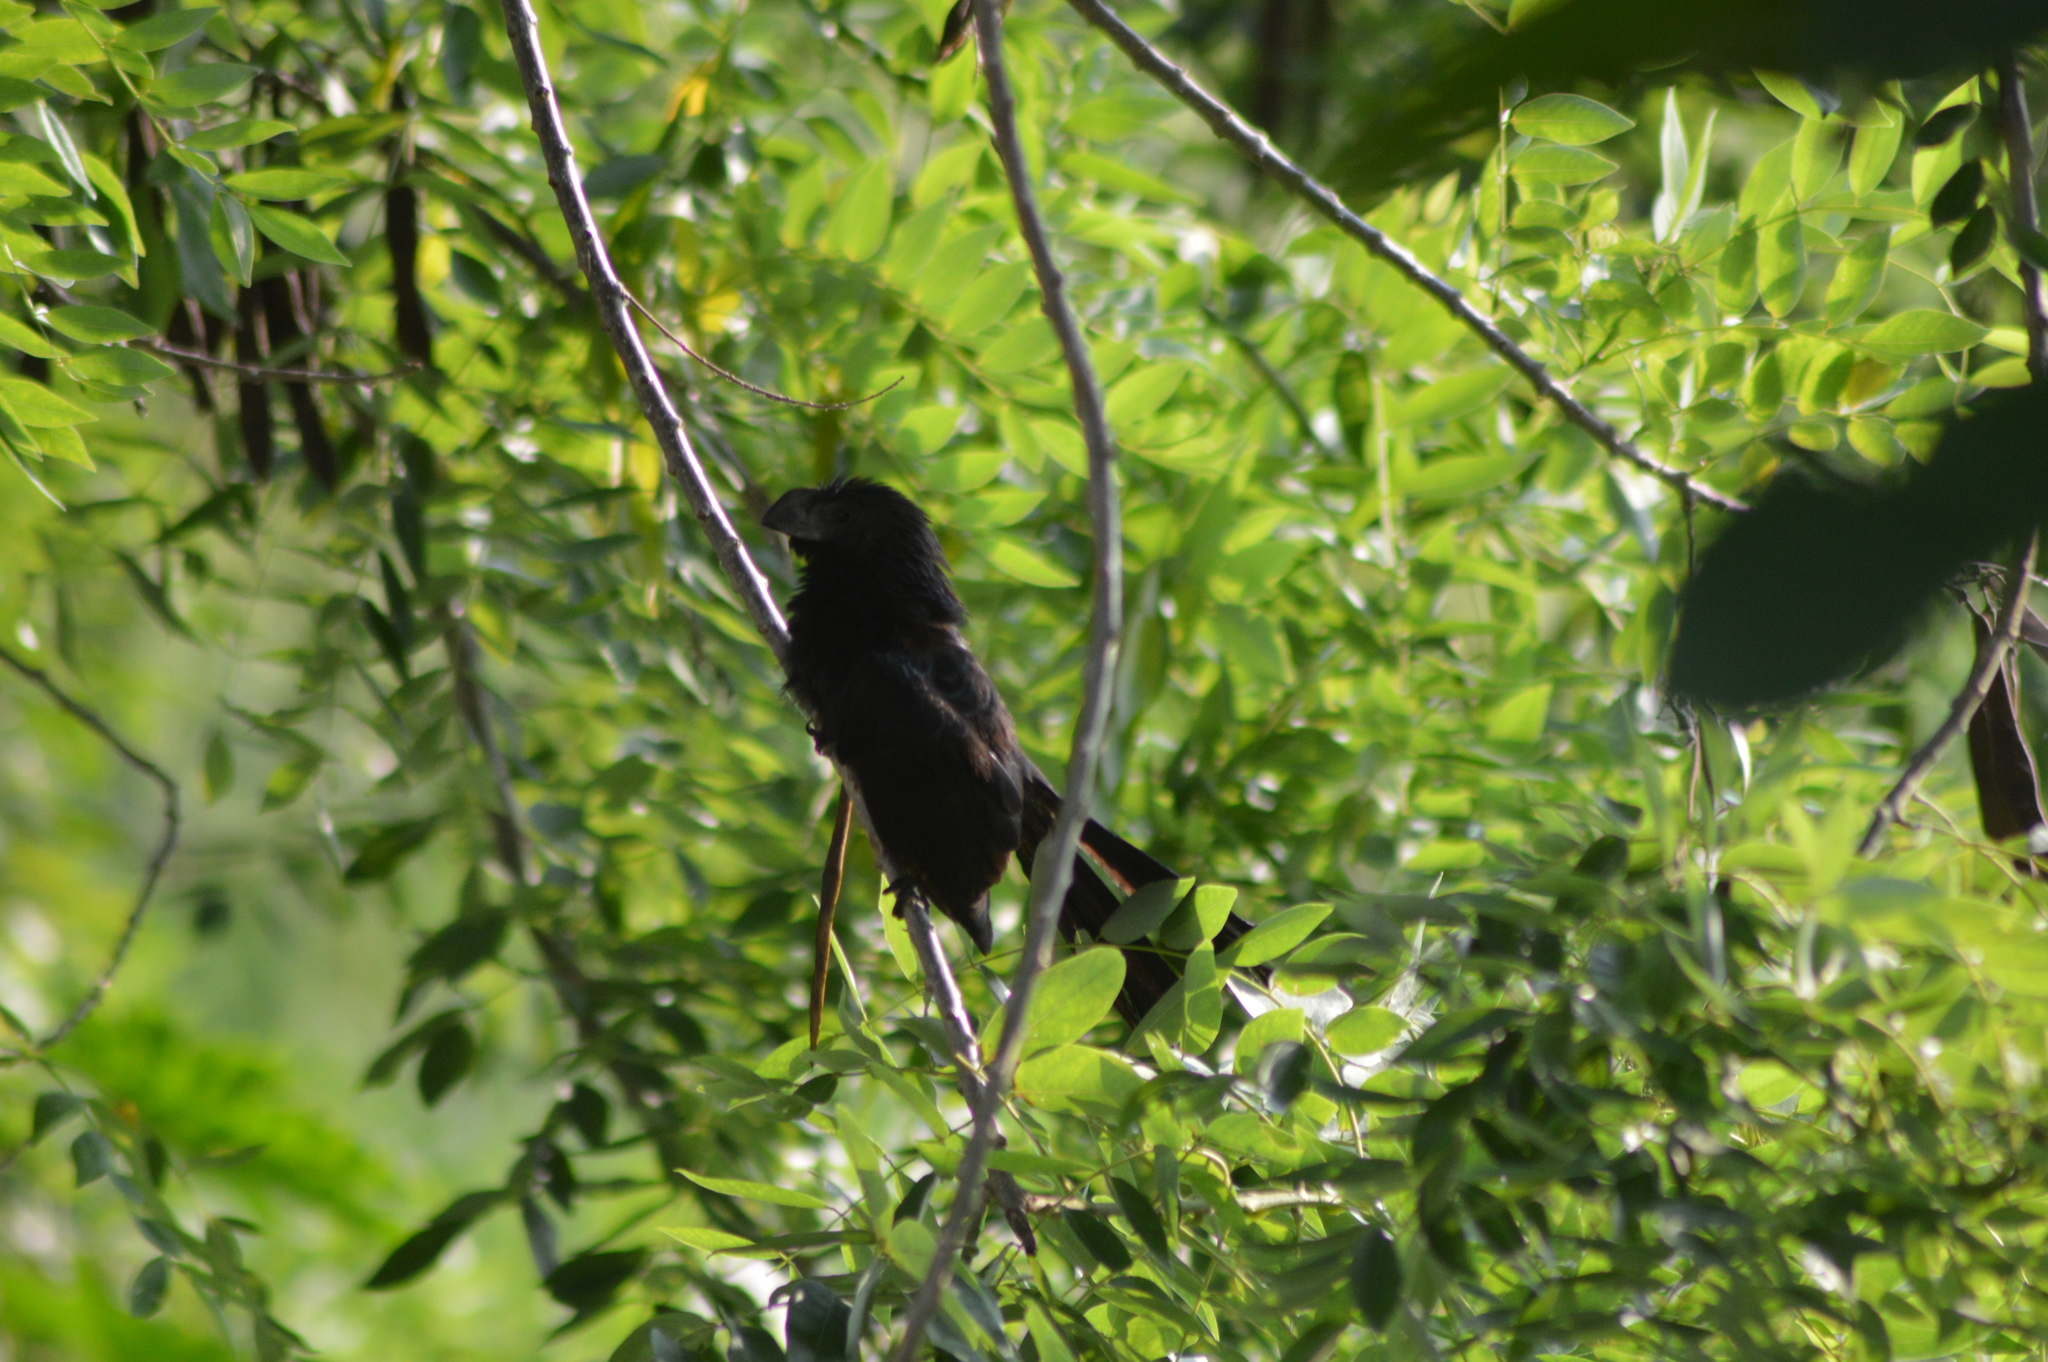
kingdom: Animalia
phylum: Chordata
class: Aves
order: Cuculiformes
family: Cuculidae
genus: Crotophaga
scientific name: Crotophaga sulcirostris
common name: Groove-billed ani
